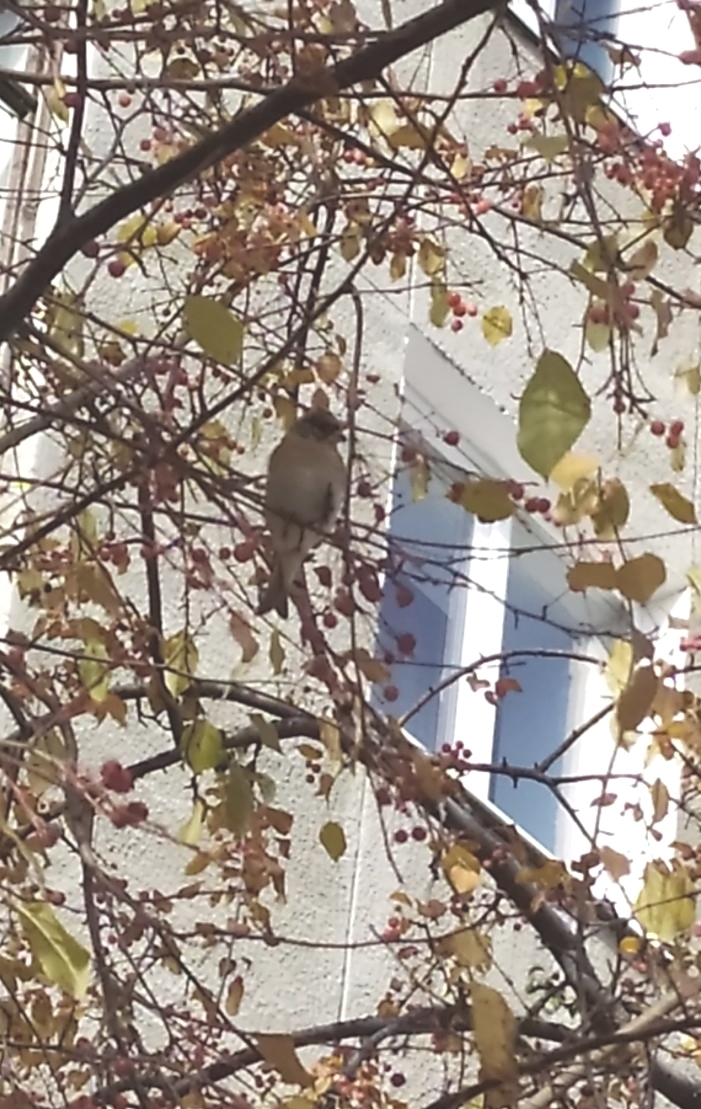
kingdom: Animalia
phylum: Chordata
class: Aves
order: Passeriformes
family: Fringillidae
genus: Fringilla
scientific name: Fringilla montifringilla
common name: Brambling
